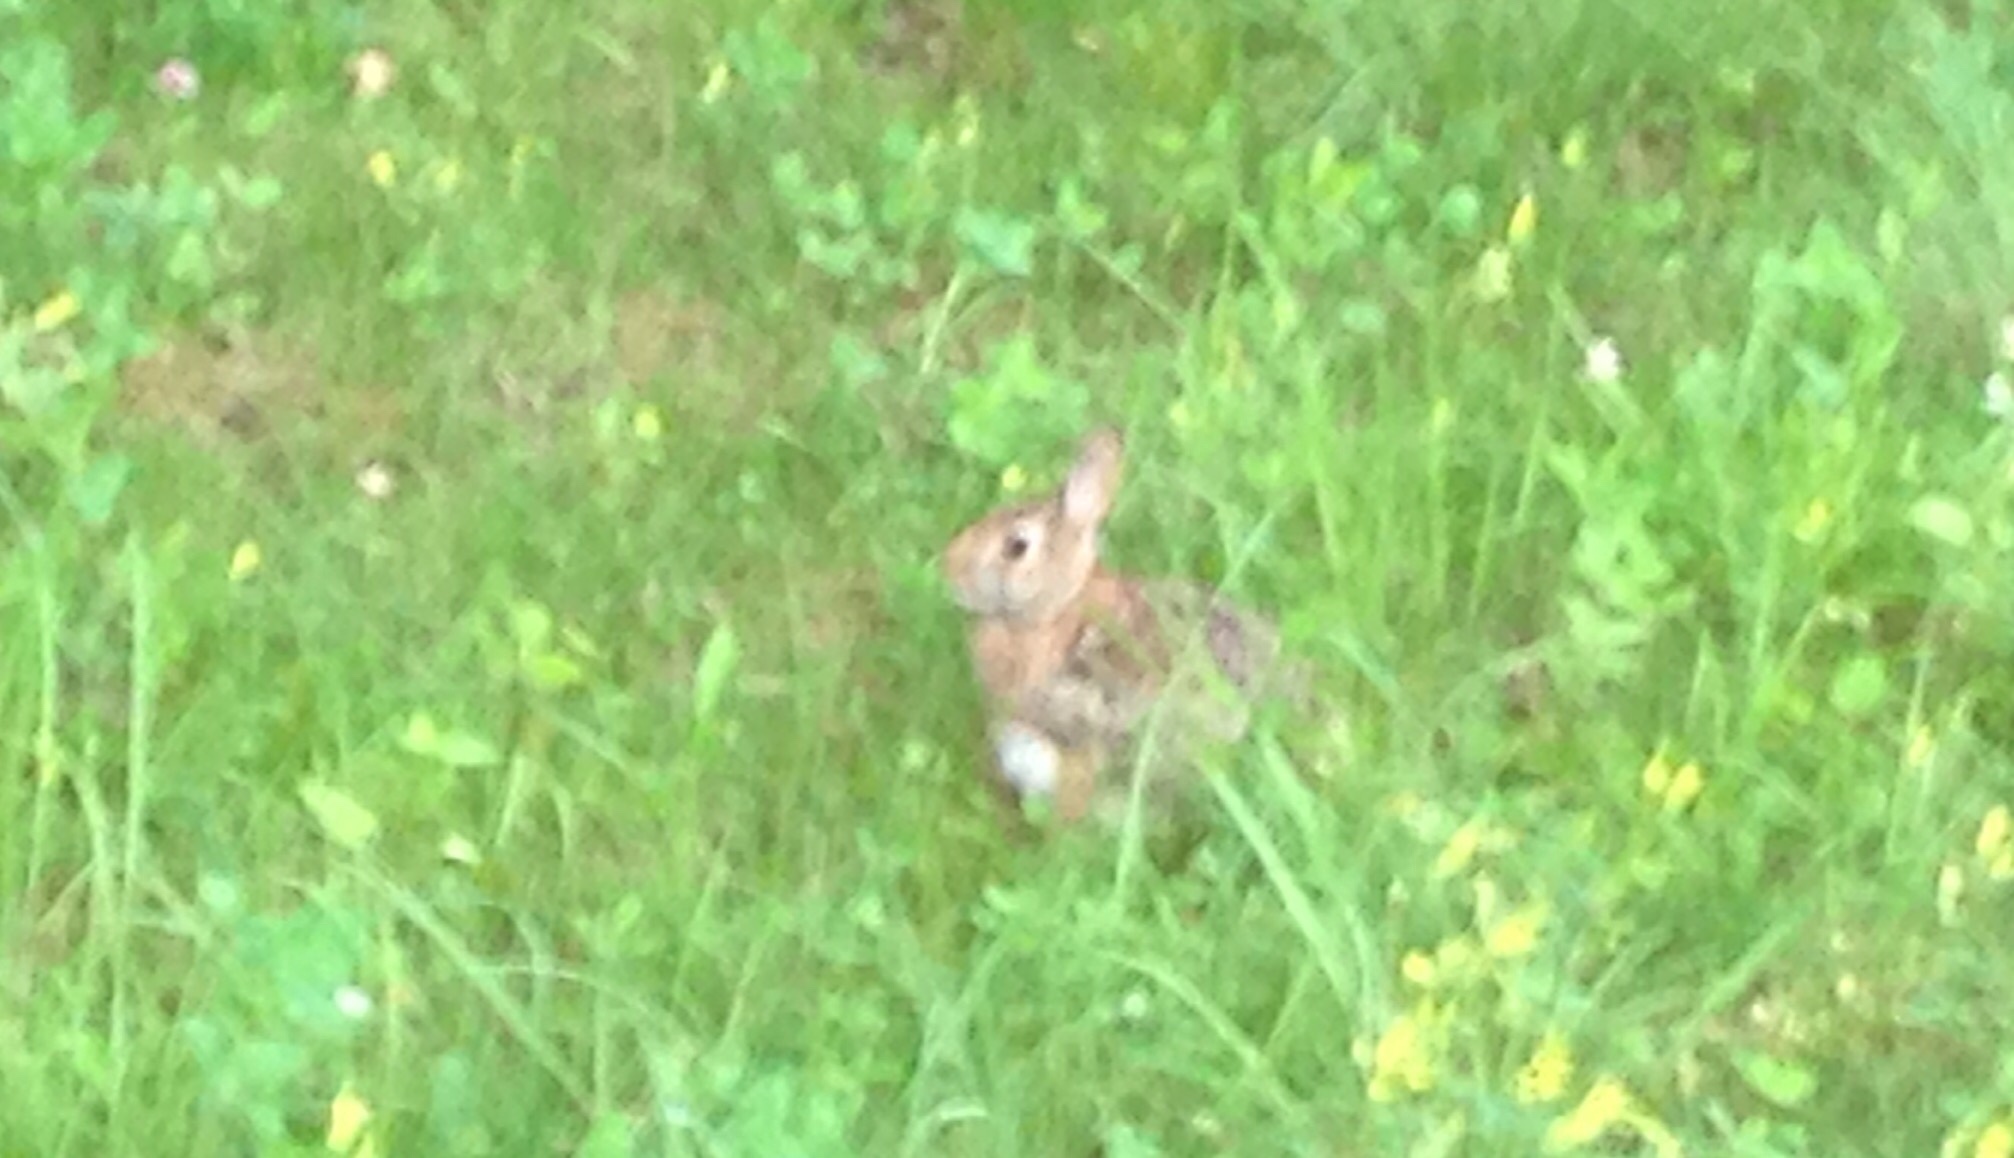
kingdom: Animalia
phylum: Chordata
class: Mammalia
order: Lagomorpha
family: Leporidae
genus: Sylvilagus
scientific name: Sylvilagus floridanus
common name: Eastern cottontail
